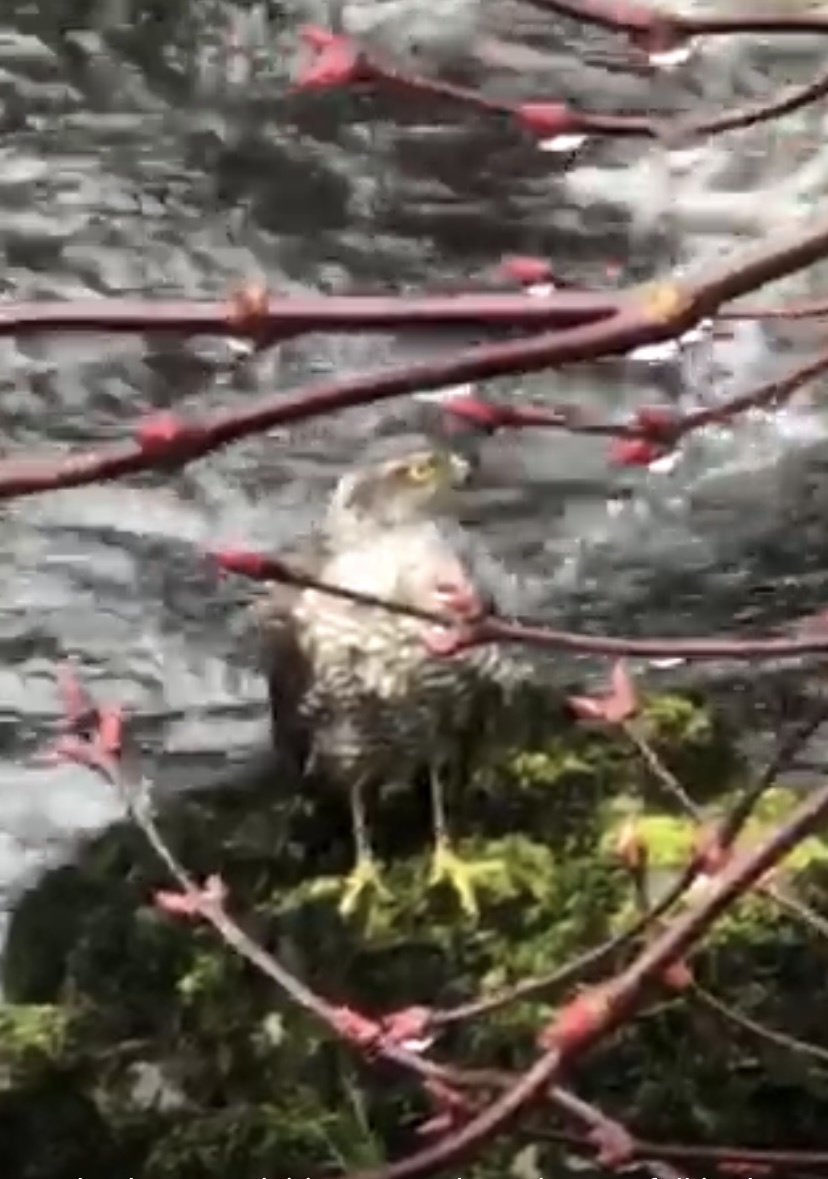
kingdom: Animalia
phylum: Chordata
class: Aves
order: Accipitriformes
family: Accipitridae
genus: Accipiter
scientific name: Accipiter nisus
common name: Eurasian sparrowhawk
